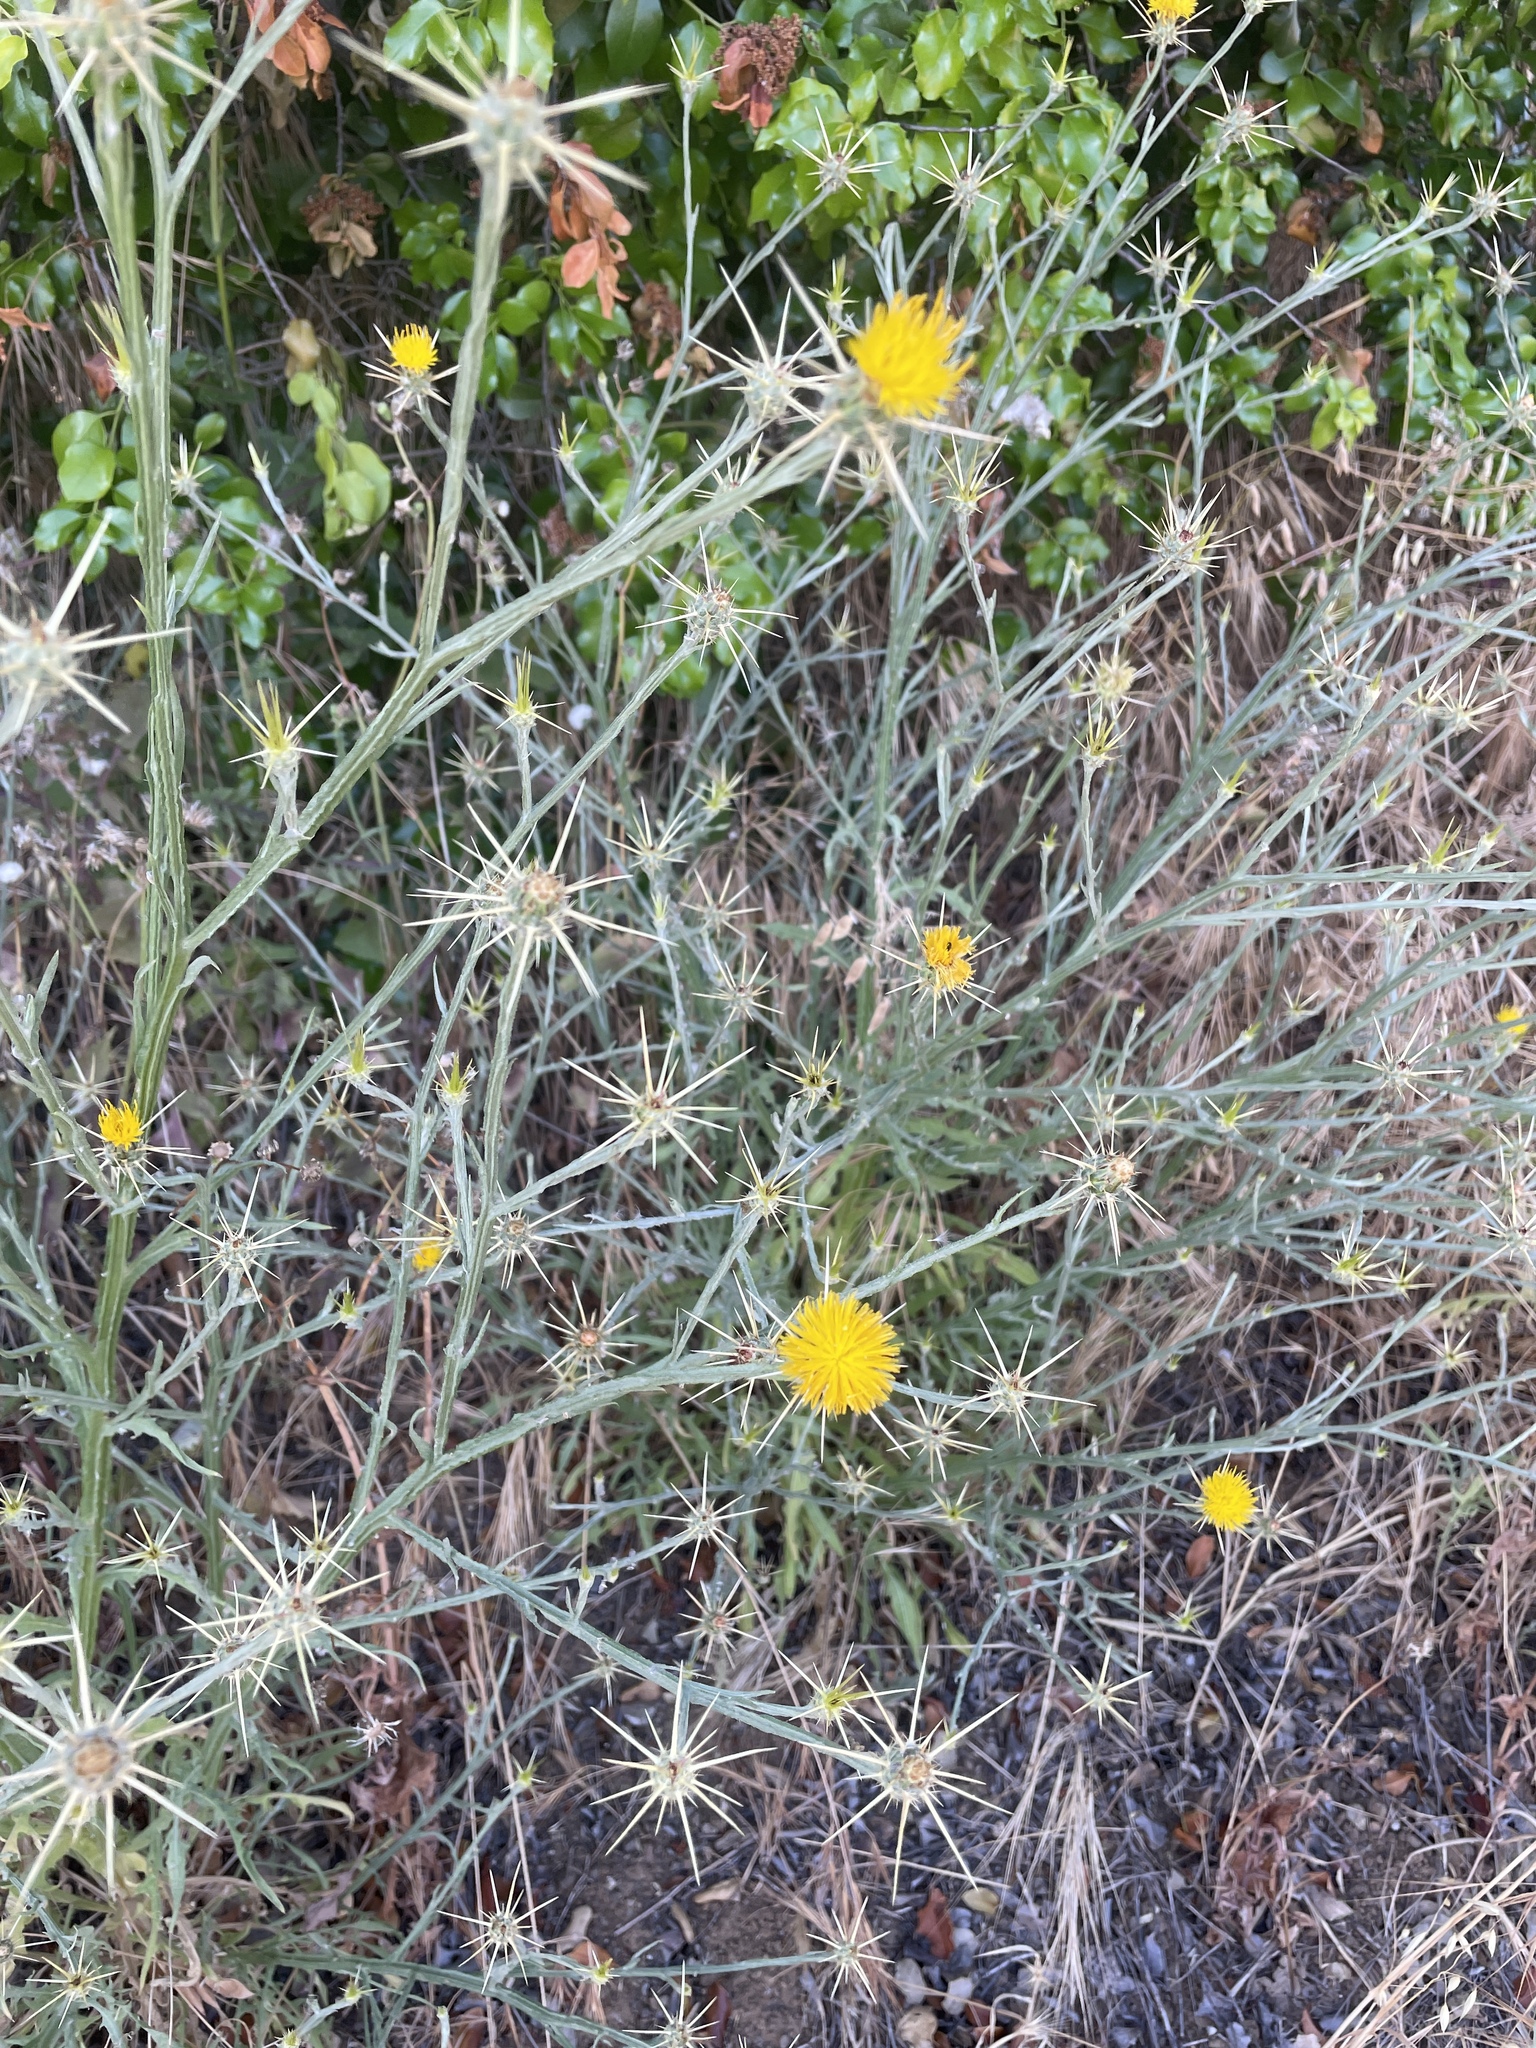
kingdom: Plantae
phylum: Tracheophyta
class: Magnoliopsida
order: Asterales
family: Asteraceae
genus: Centaurea
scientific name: Centaurea solstitialis
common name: Yellow star-thistle
